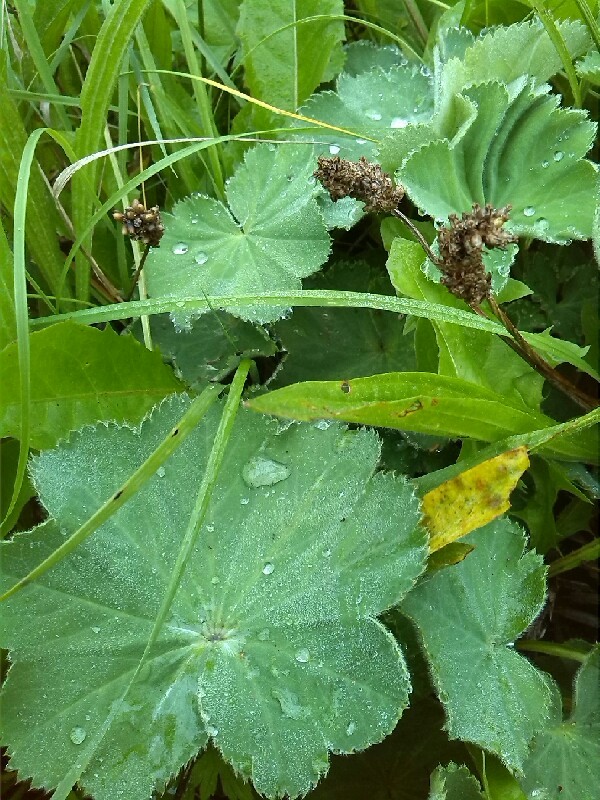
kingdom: Plantae
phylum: Tracheophyta
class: Magnoliopsida
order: Rosales
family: Rosaceae
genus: Alchemilla
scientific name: Alchemilla mollis
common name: Lady's-mantle
